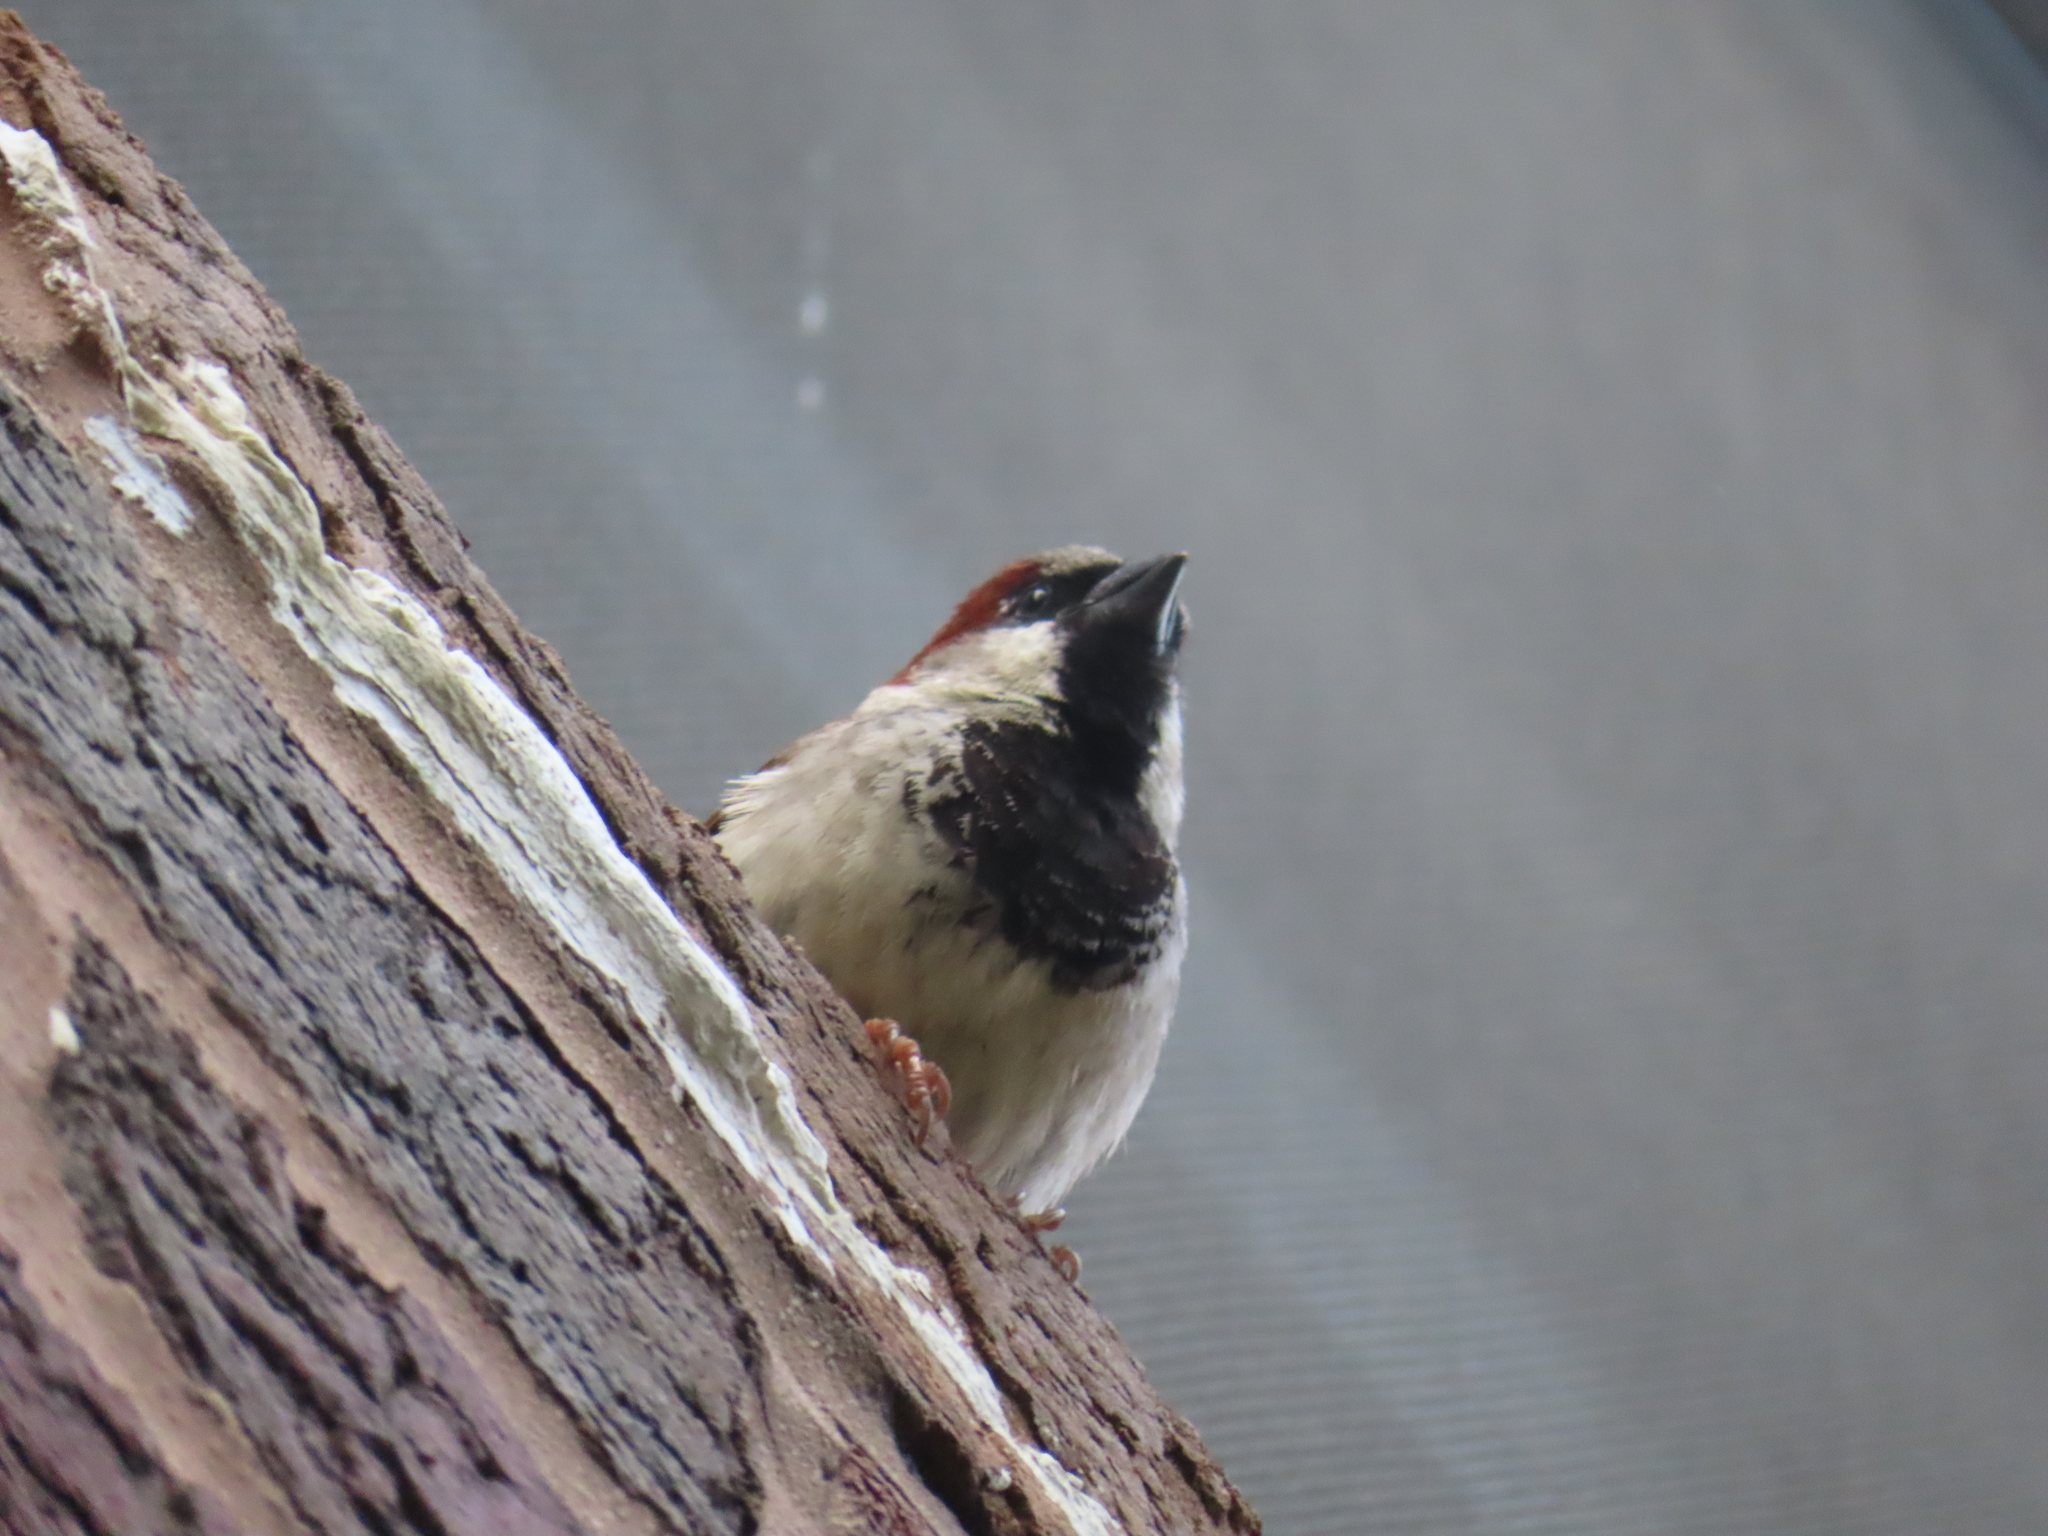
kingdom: Animalia
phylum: Chordata
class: Aves
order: Passeriformes
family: Passeridae
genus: Passer
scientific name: Passer domesticus
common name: House sparrow
